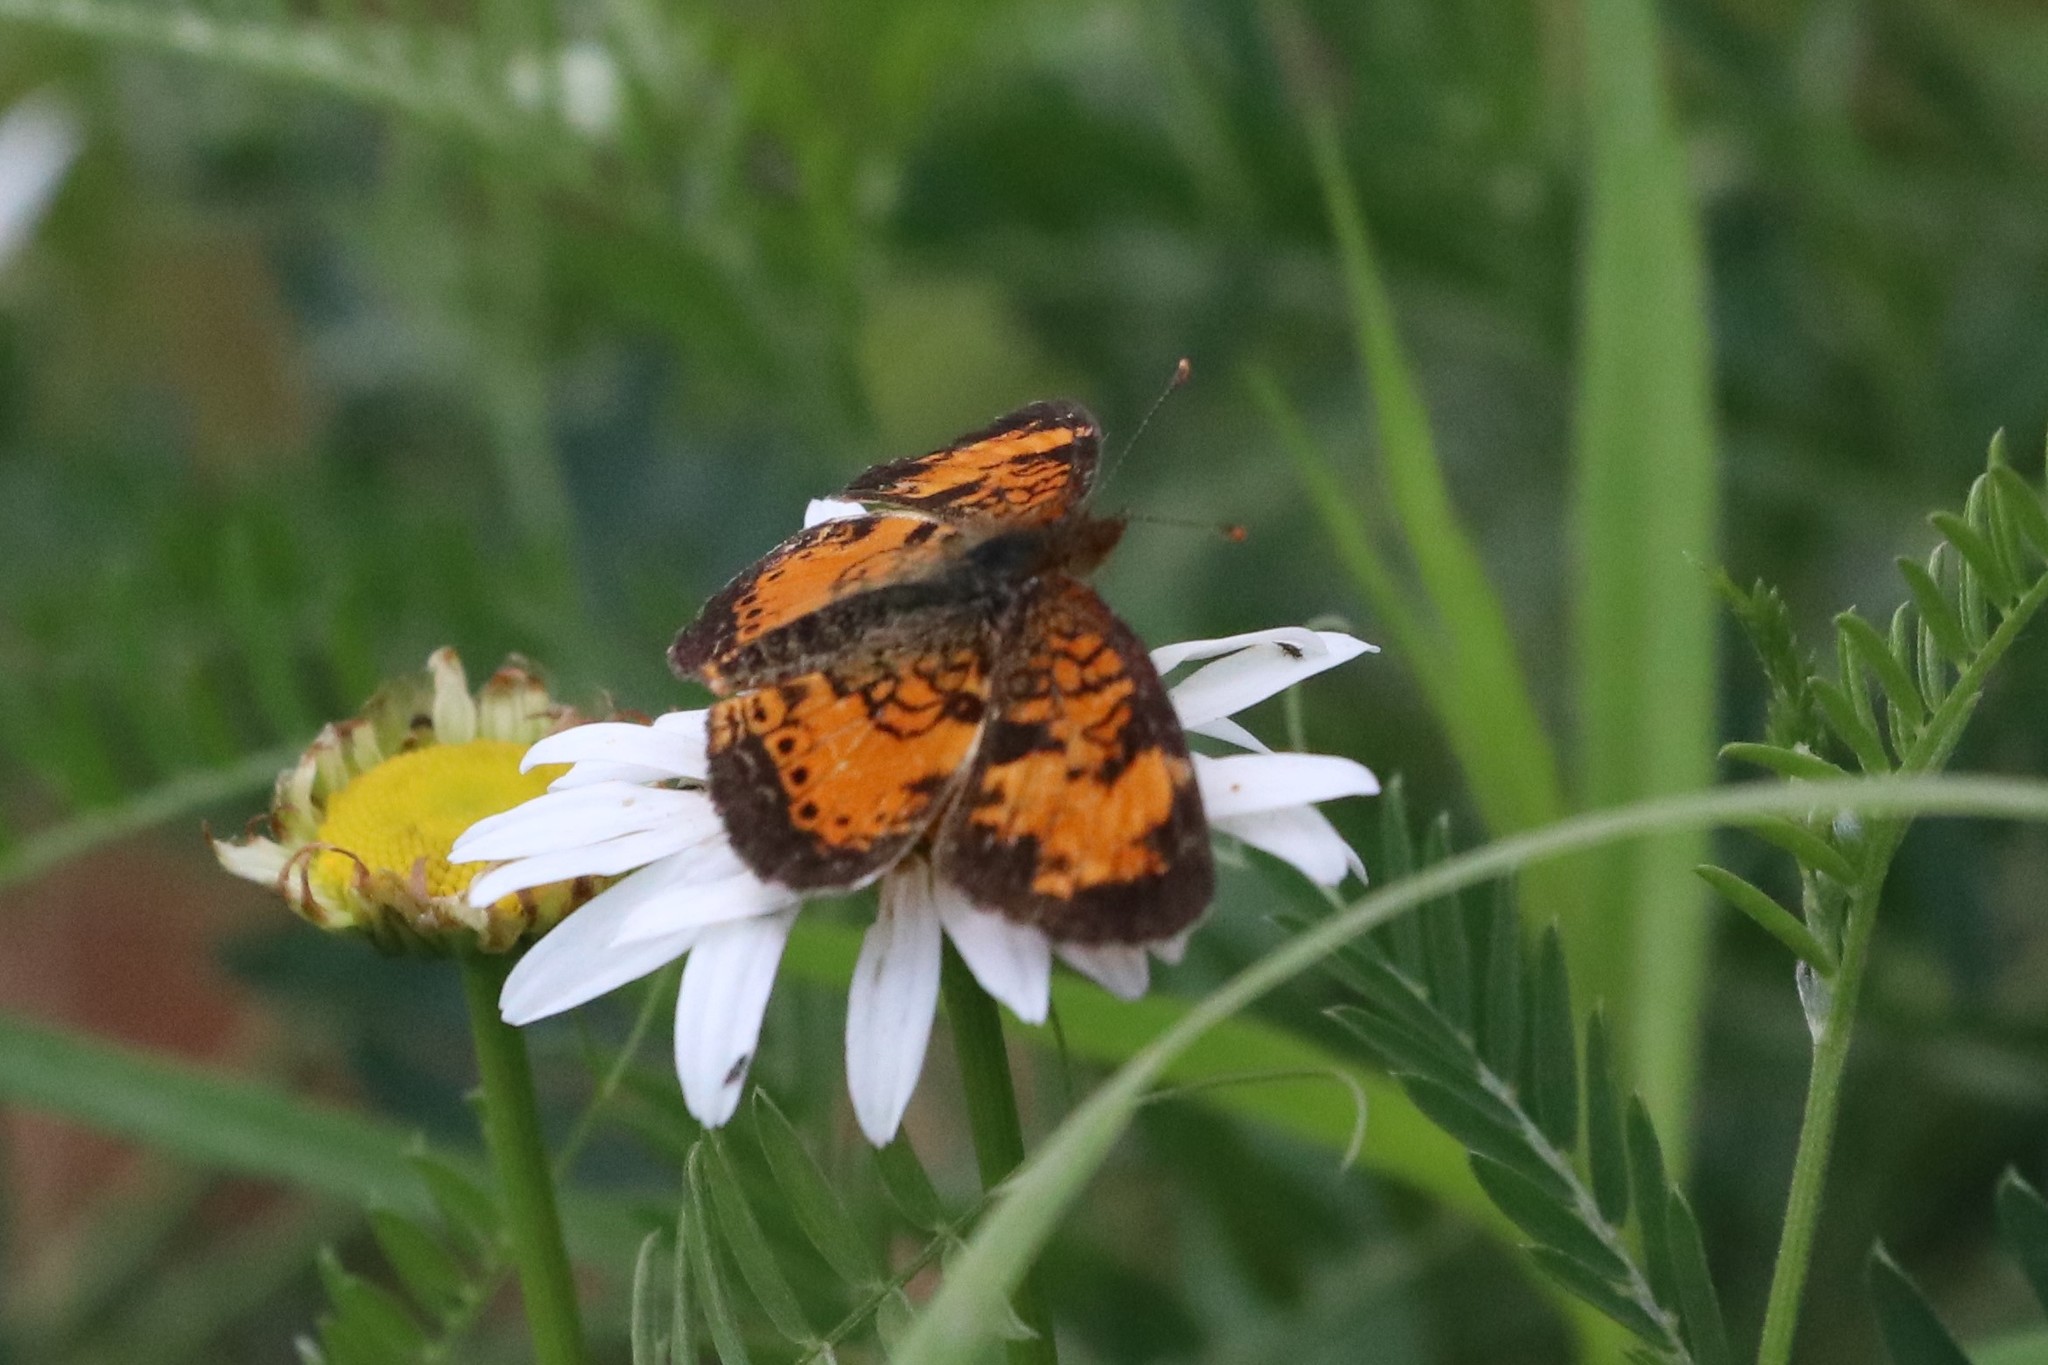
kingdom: Animalia
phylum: Arthropoda
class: Insecta
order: Lepidoptera
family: Nymphalidae
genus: Phyciodes
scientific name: Phyciodes tharos
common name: Pearl crescent
